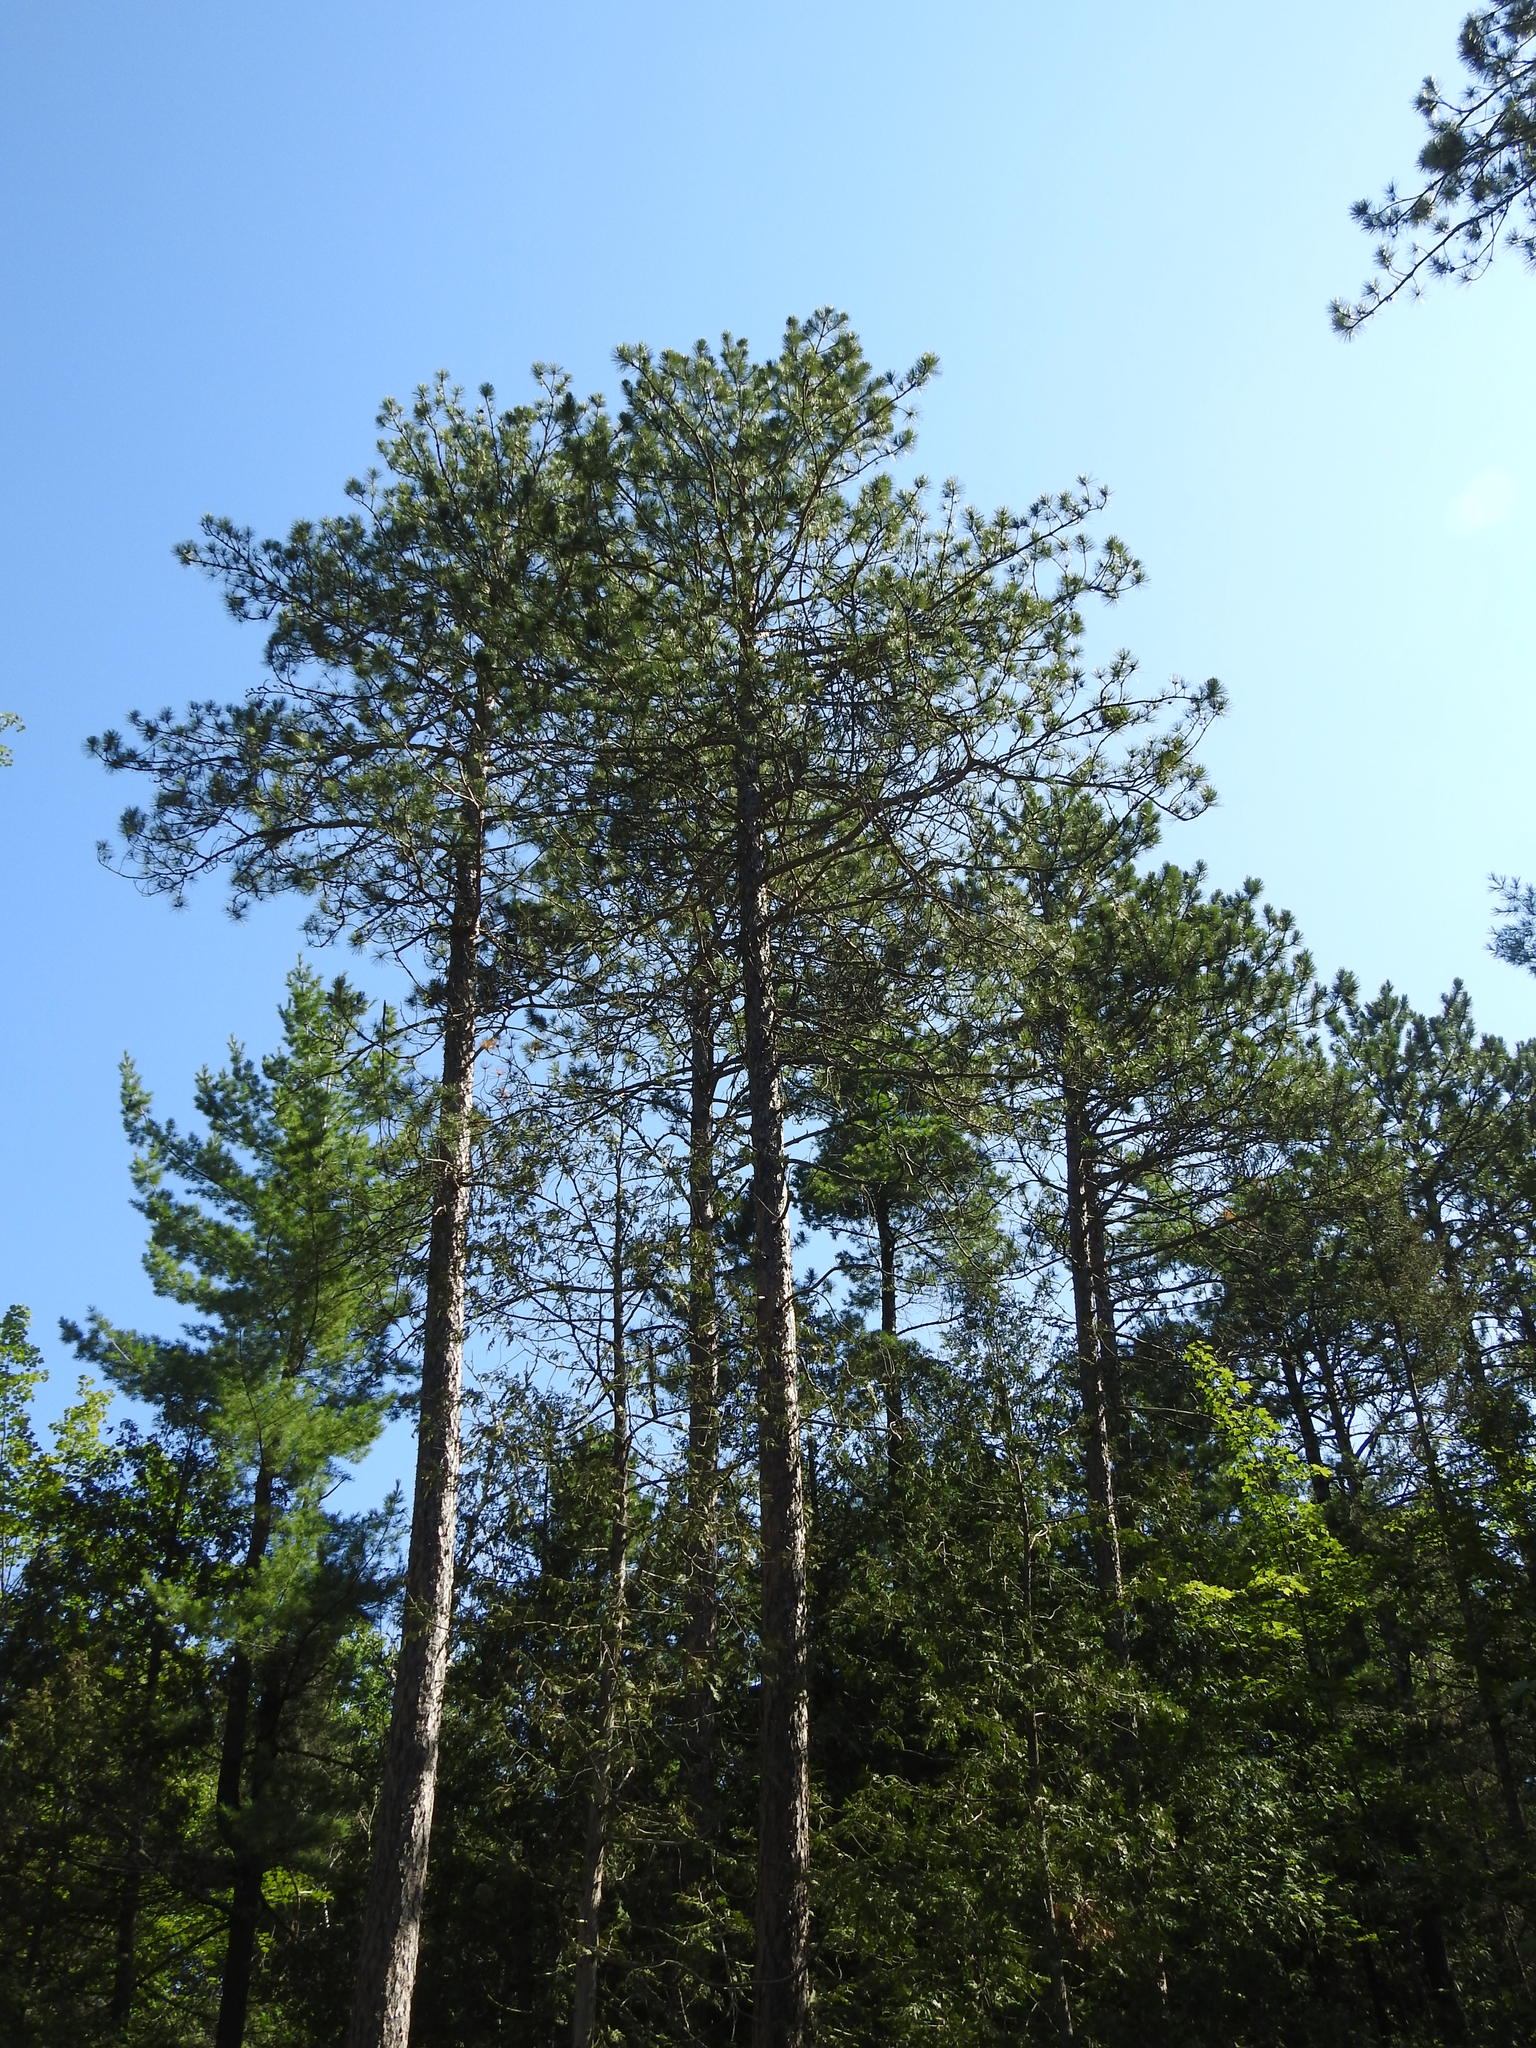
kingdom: Plantae
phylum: Tracheophyta
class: Pinopsida
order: Pinales
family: Pinaceae
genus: Pinus
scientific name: Pinus resinosa
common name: Norway pine
